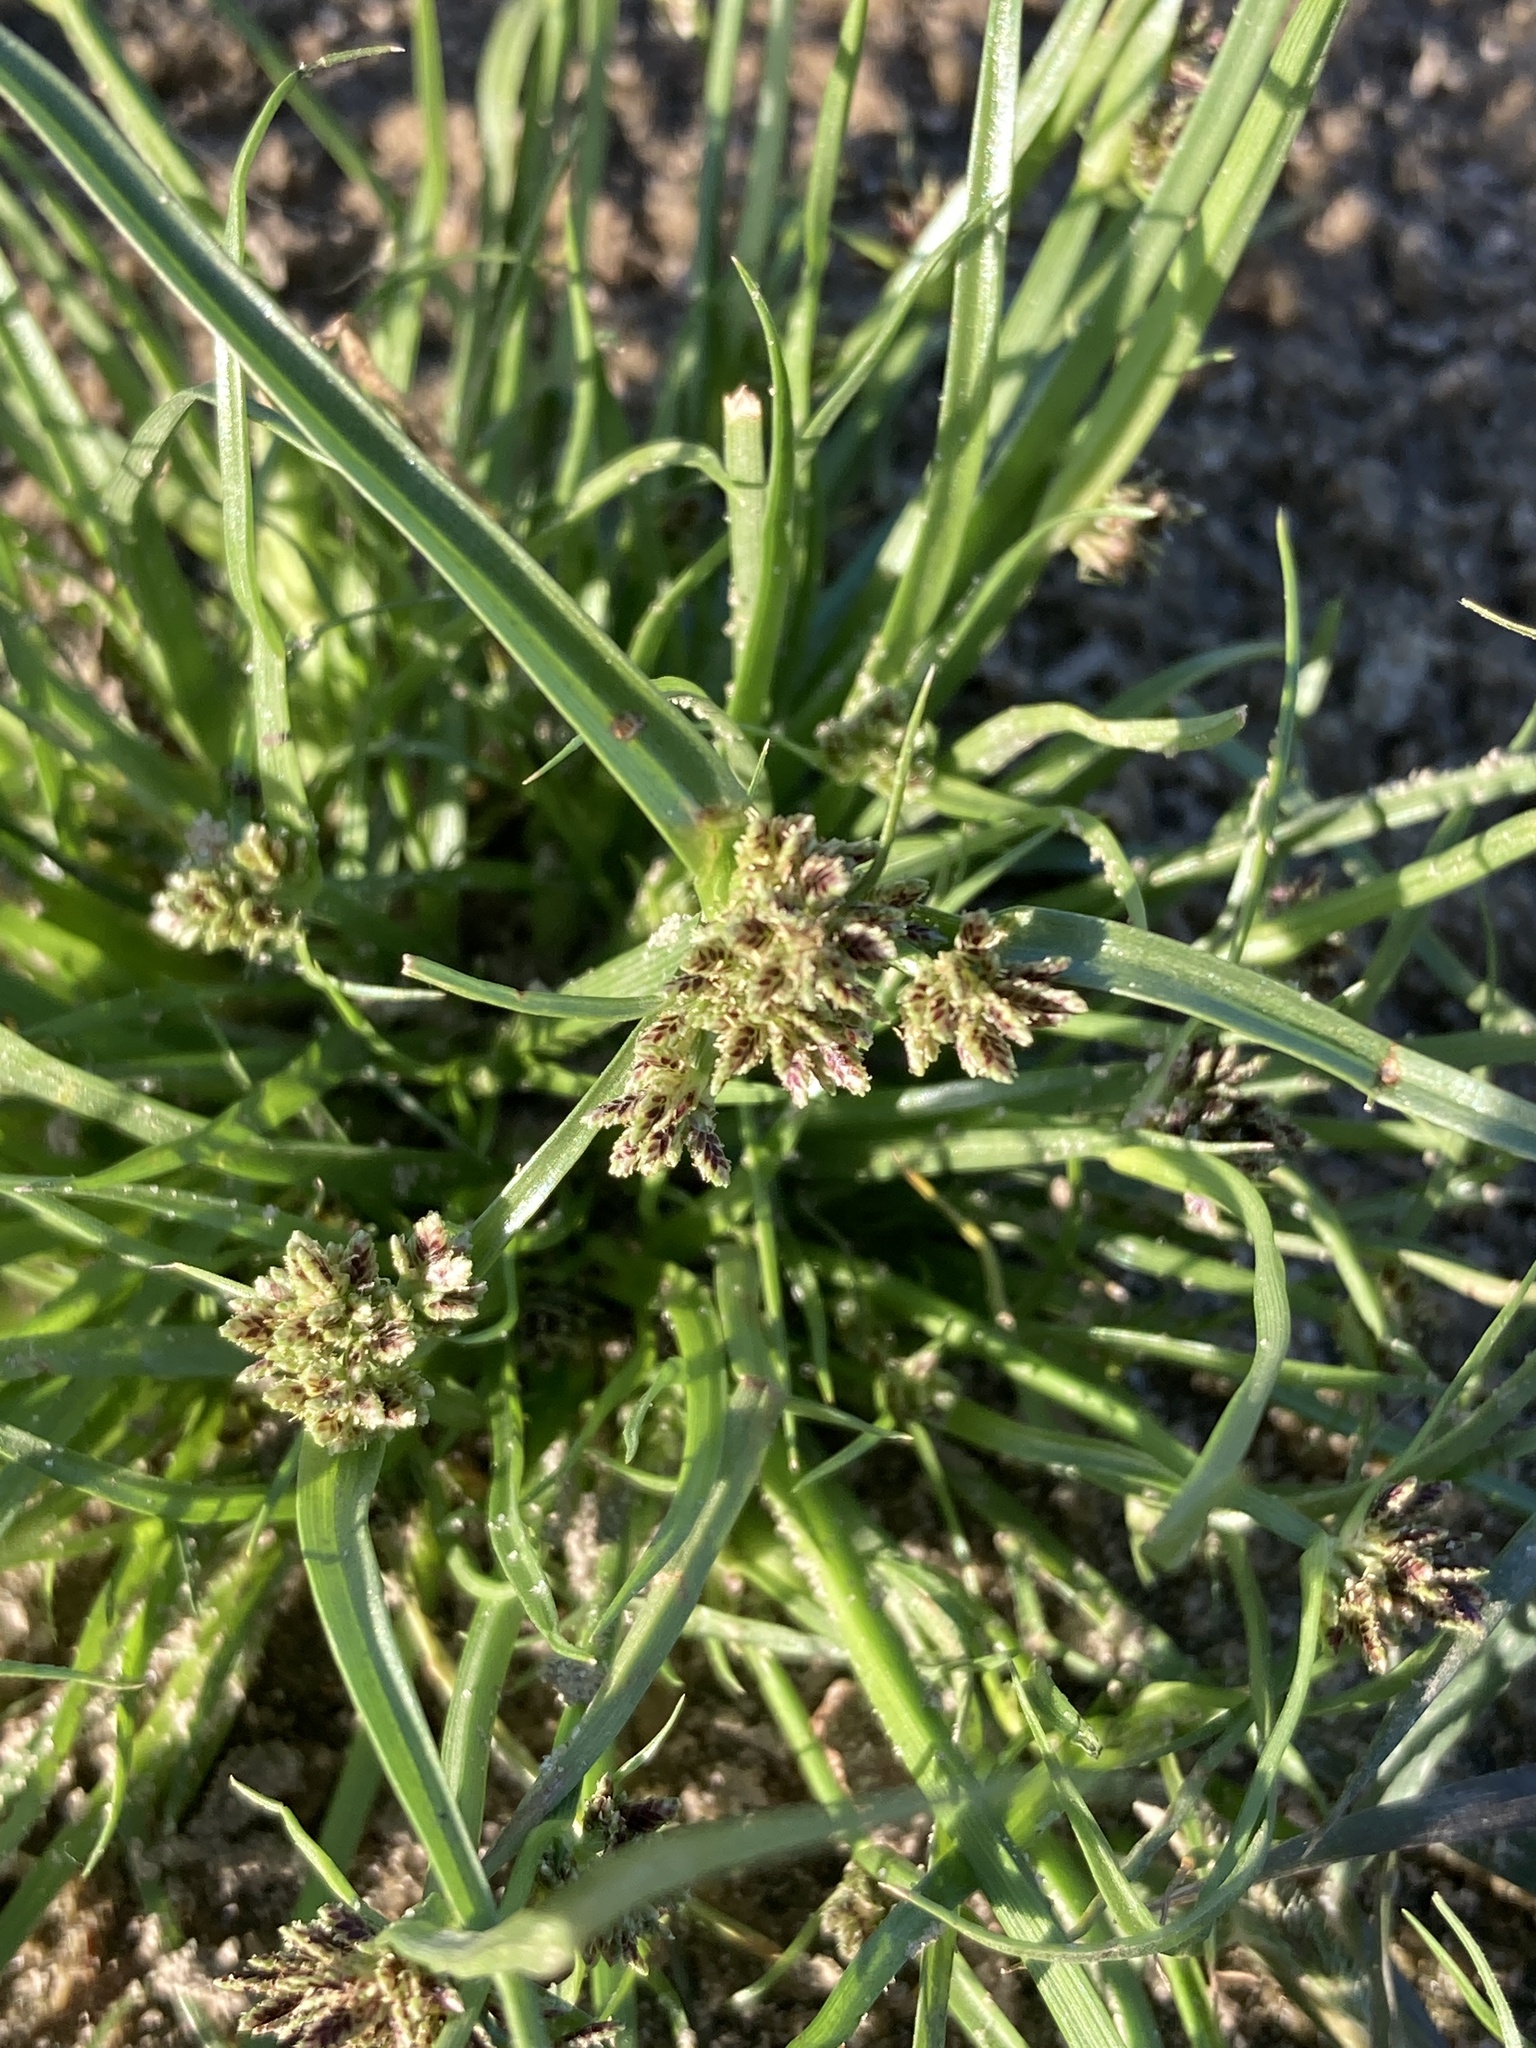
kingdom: Plantae
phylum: Tracheophyta
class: Liliopsida
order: Poales
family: Cyperaceae
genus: Cyperus
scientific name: Cyperus fuscus
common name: Brown galingale
